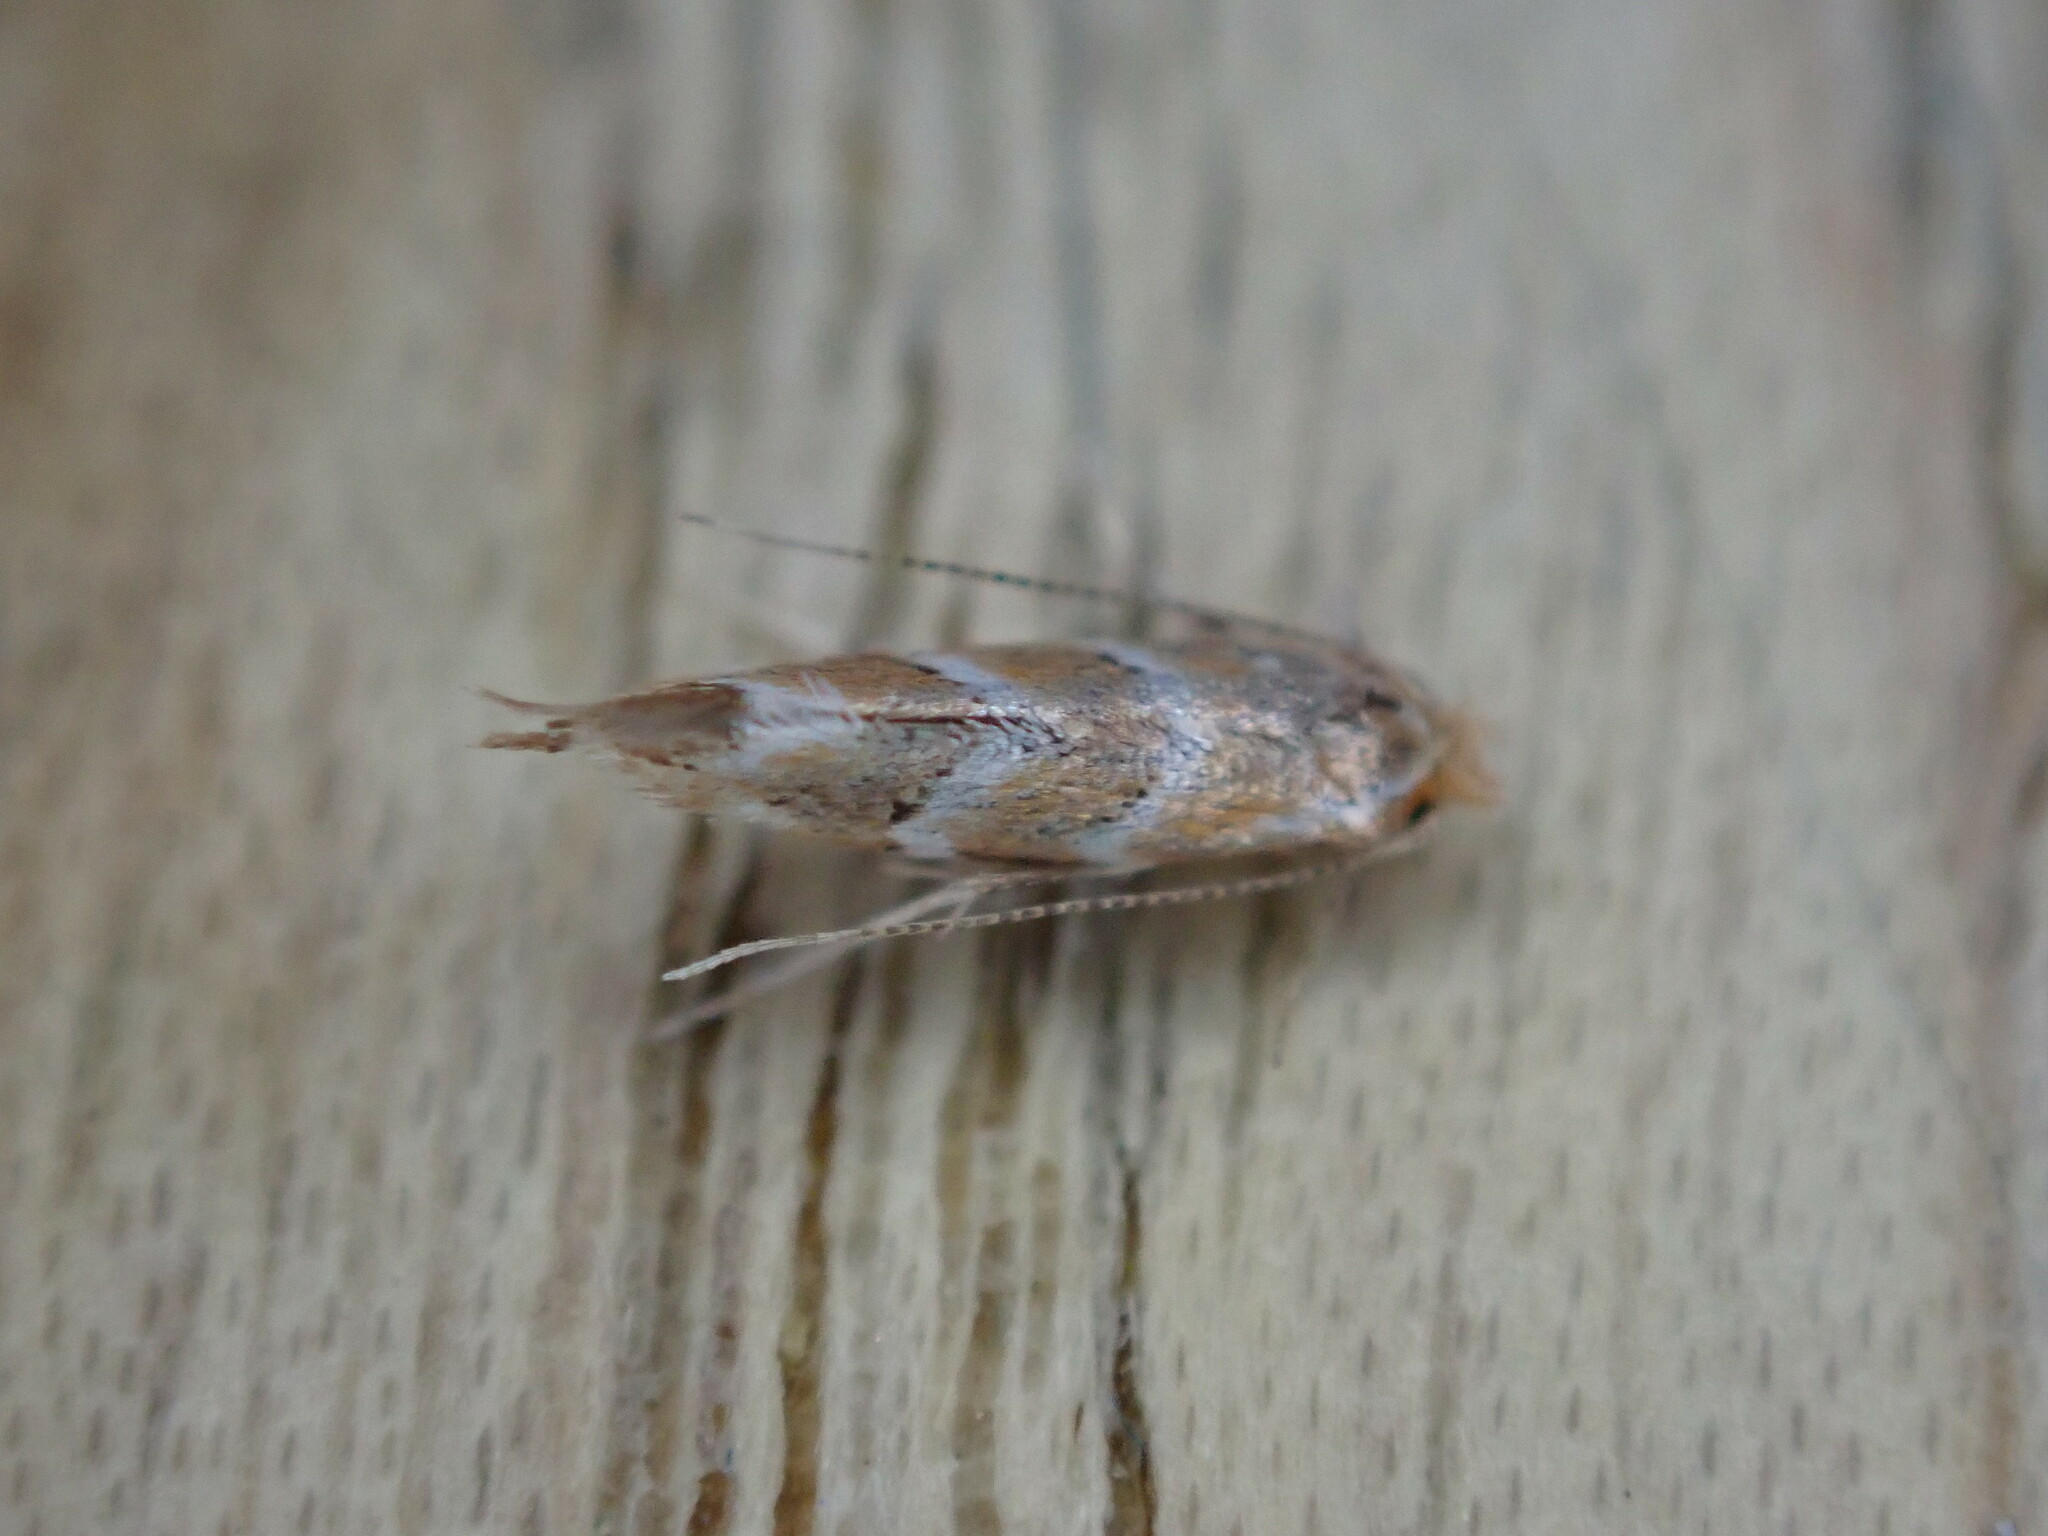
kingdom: Animalia
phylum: Arthropoda
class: Insecta
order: Lepidoptera
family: Gracillariidae
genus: Cameraria
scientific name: Cameraria ohridella
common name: Horse-chestnut leaf-miner
